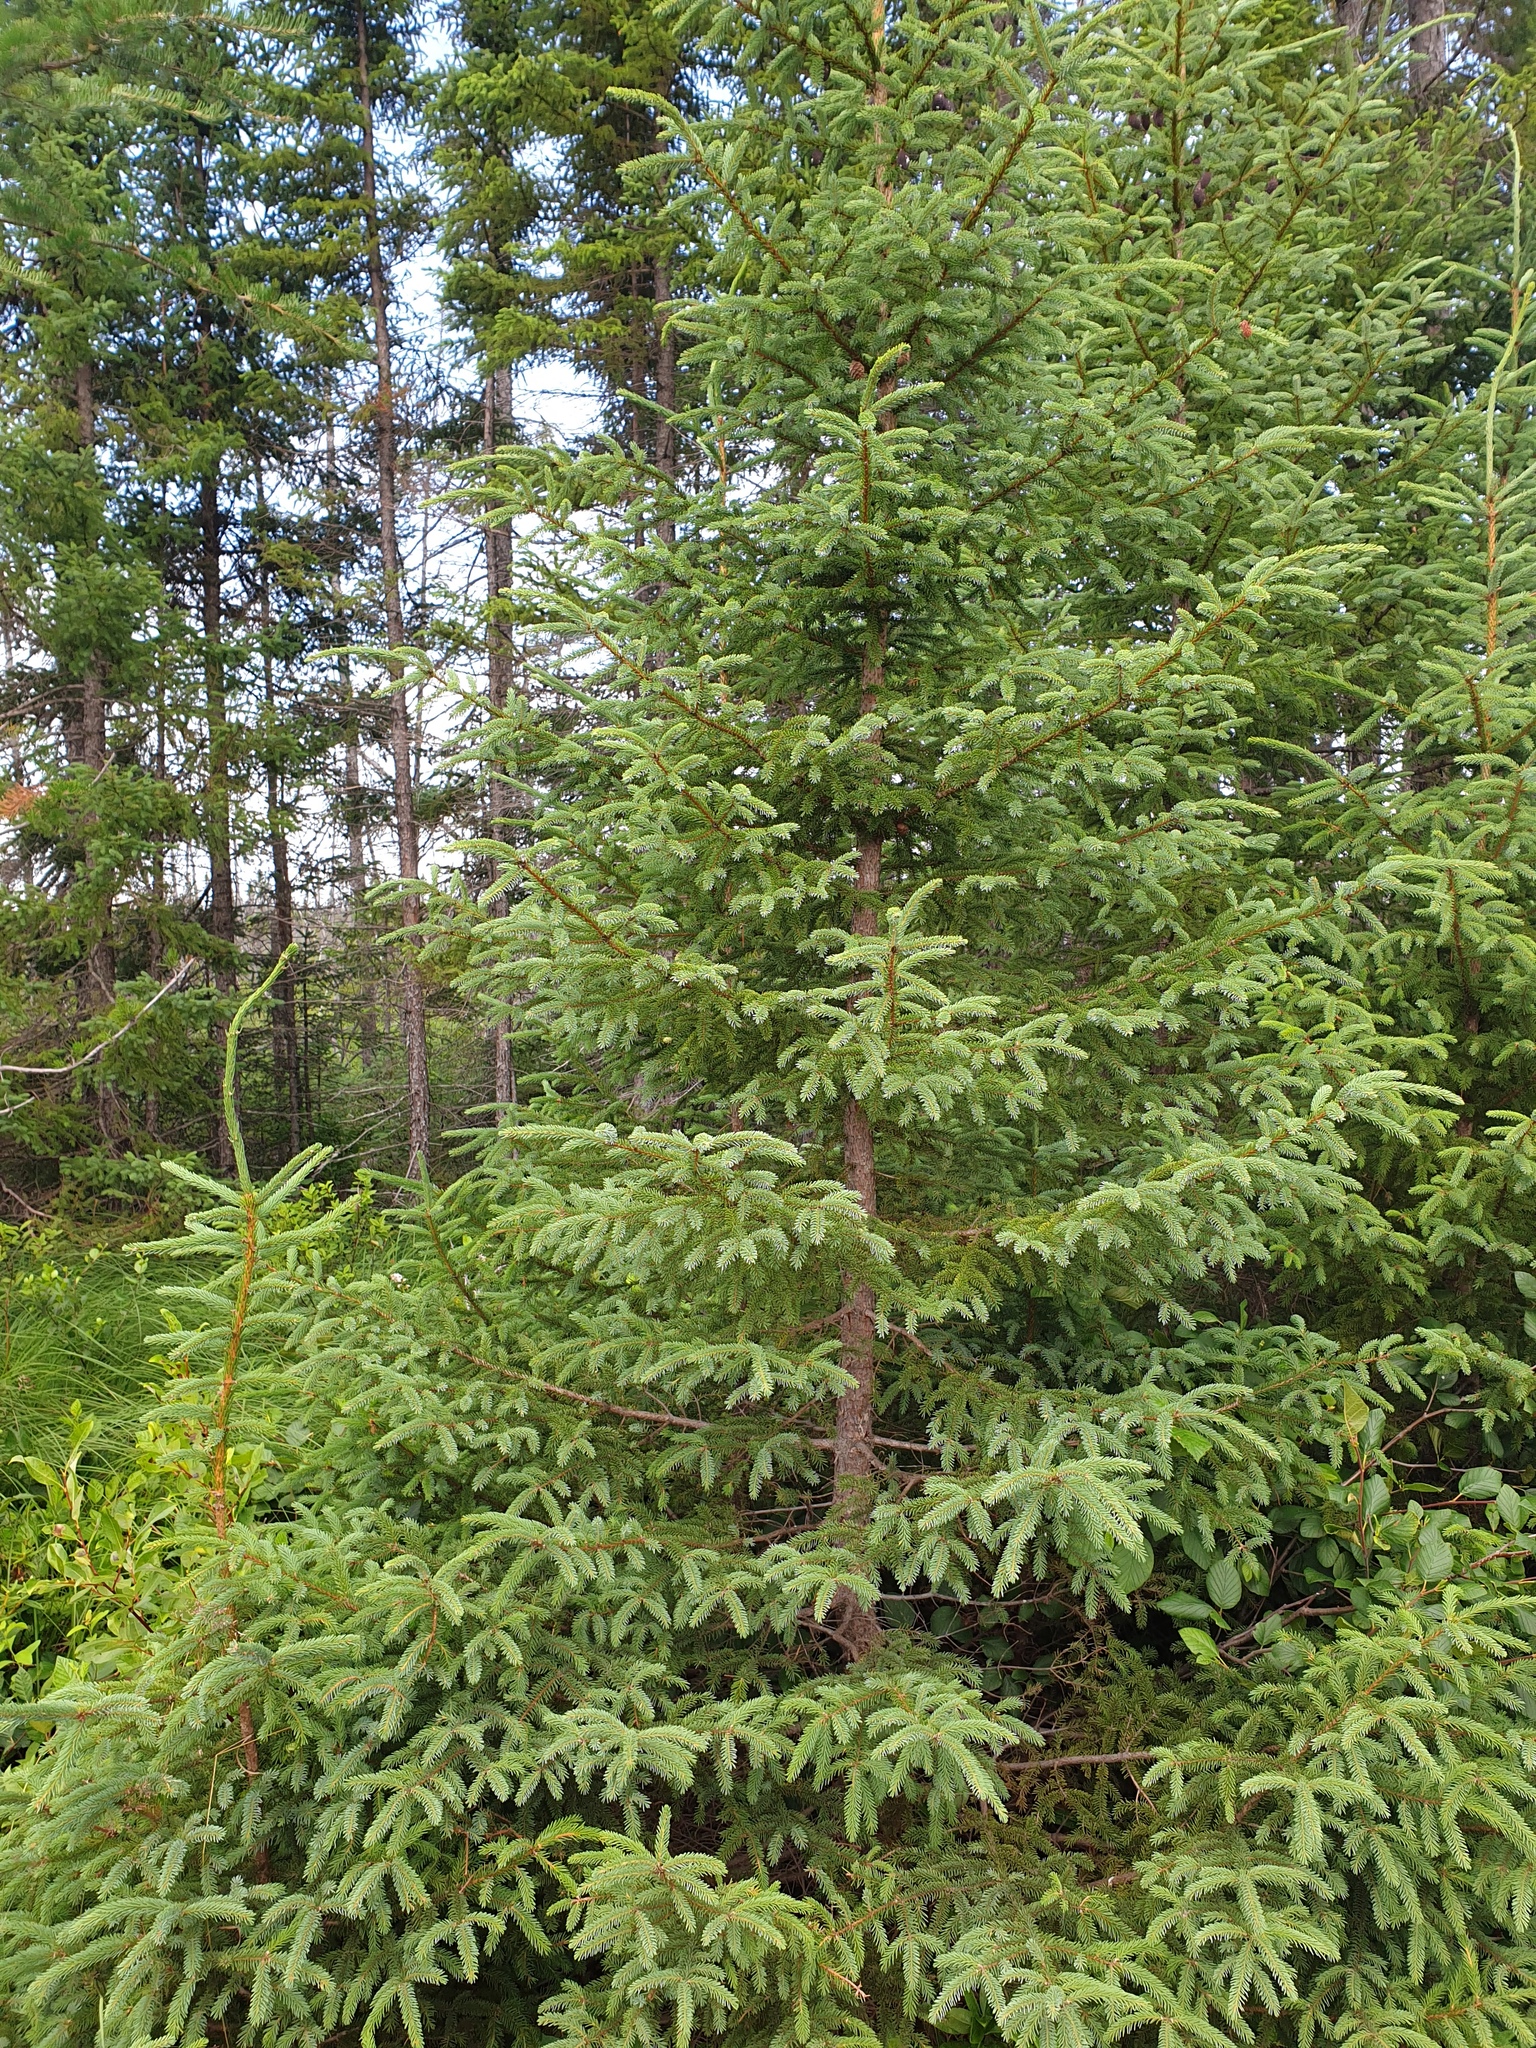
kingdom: Plantae
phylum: Tracheophyta
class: Pinopsida
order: Pinales
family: Pinaceae
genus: Picea
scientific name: Picea mariana
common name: Black spruce
